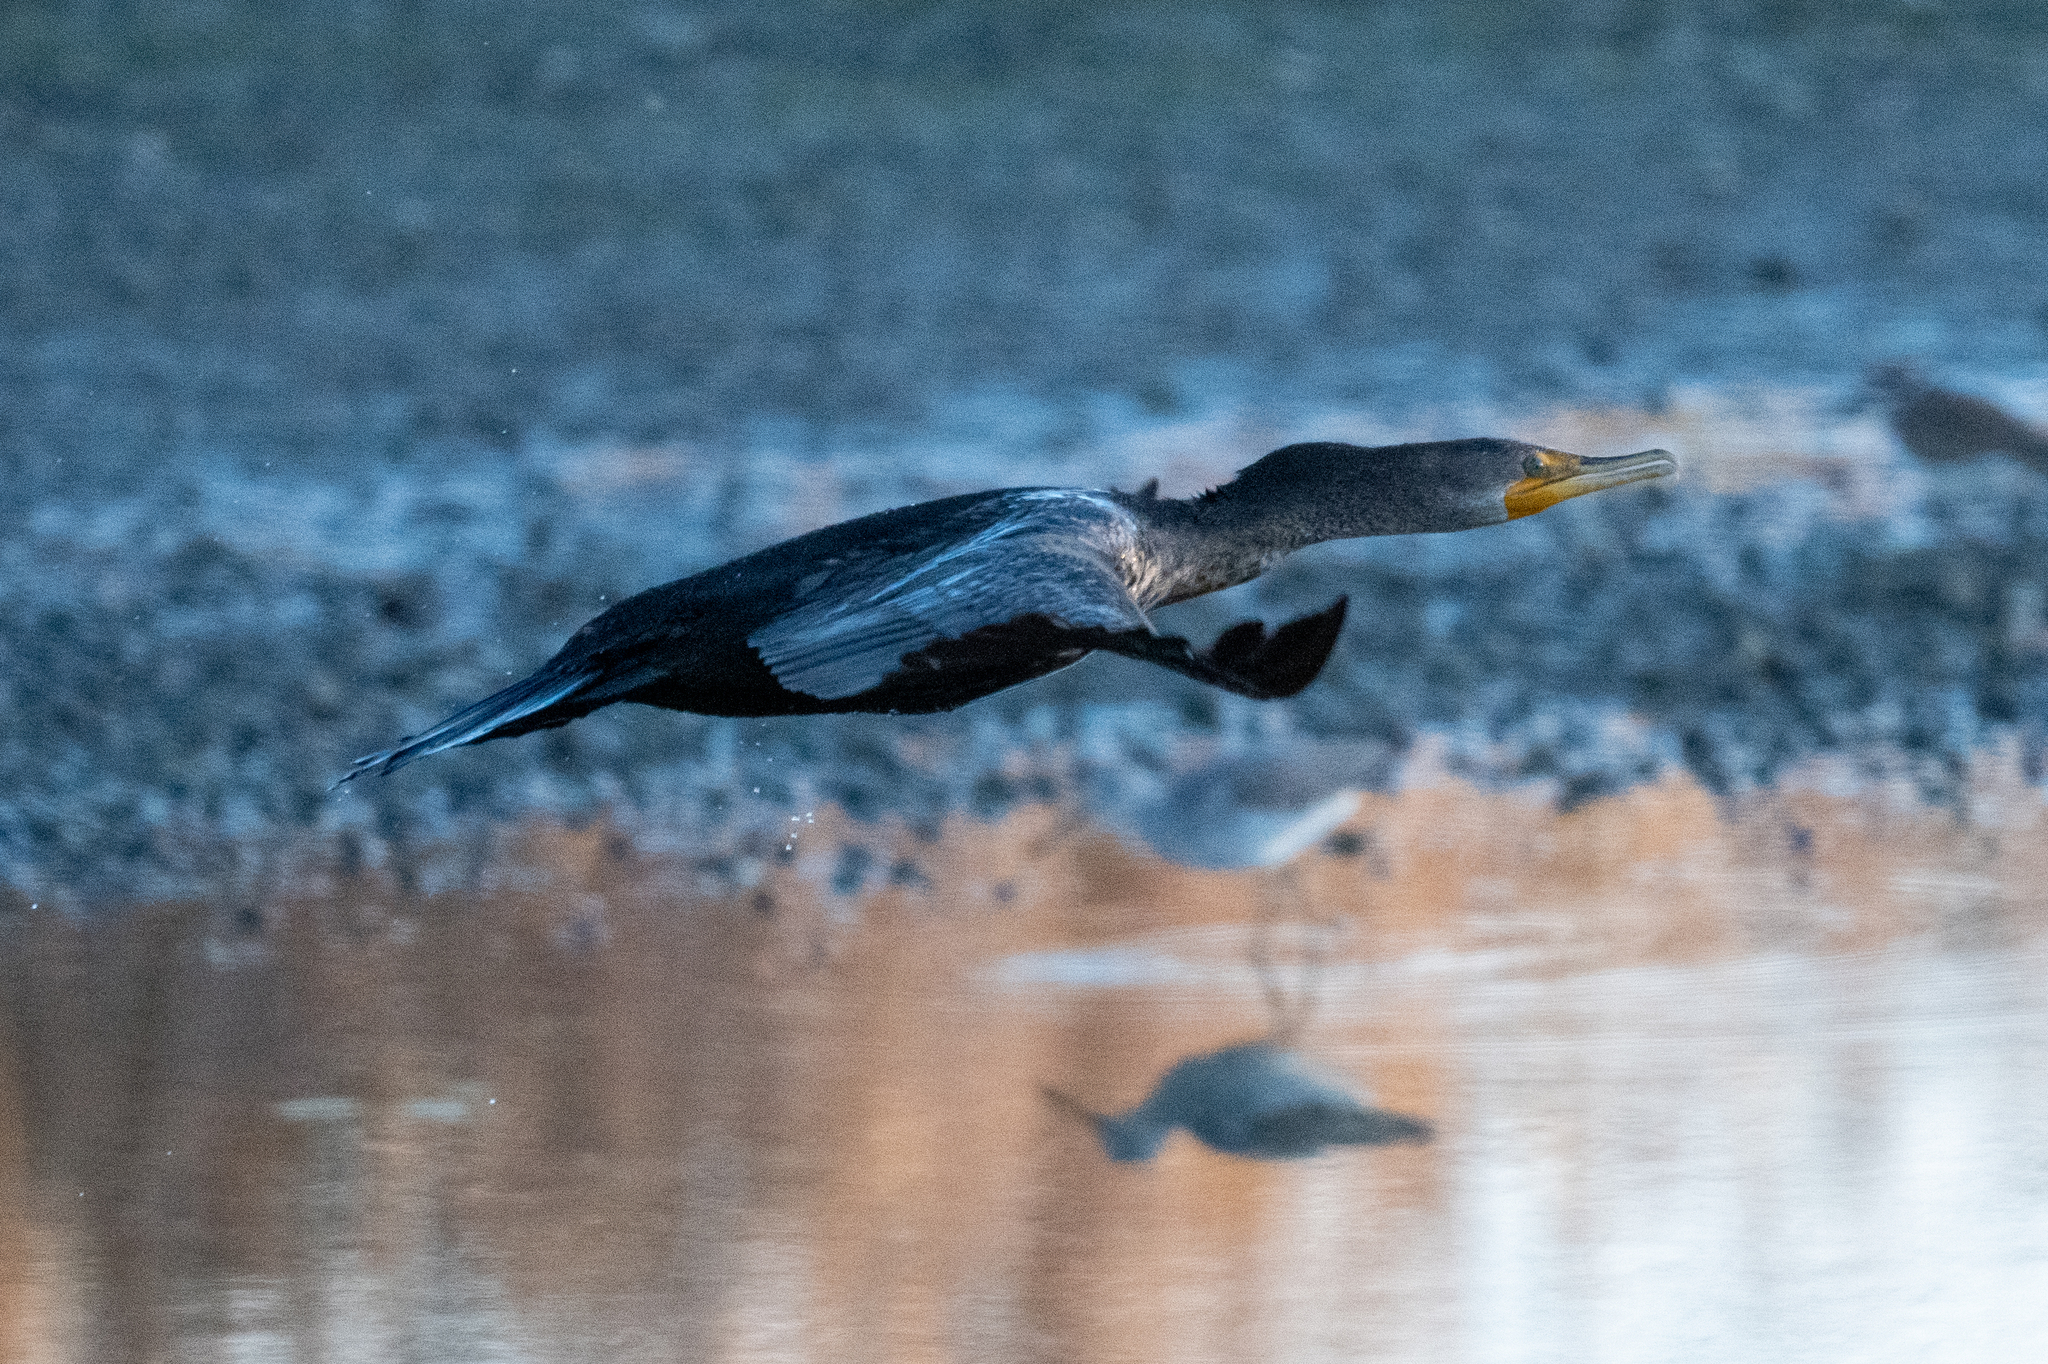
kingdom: Animalia
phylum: Chordata
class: Aves
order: Suliformes
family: Phalacrocoracidae
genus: Phalacrocorax
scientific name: Phalacrocorax auritus
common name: Double-crested cormorant
